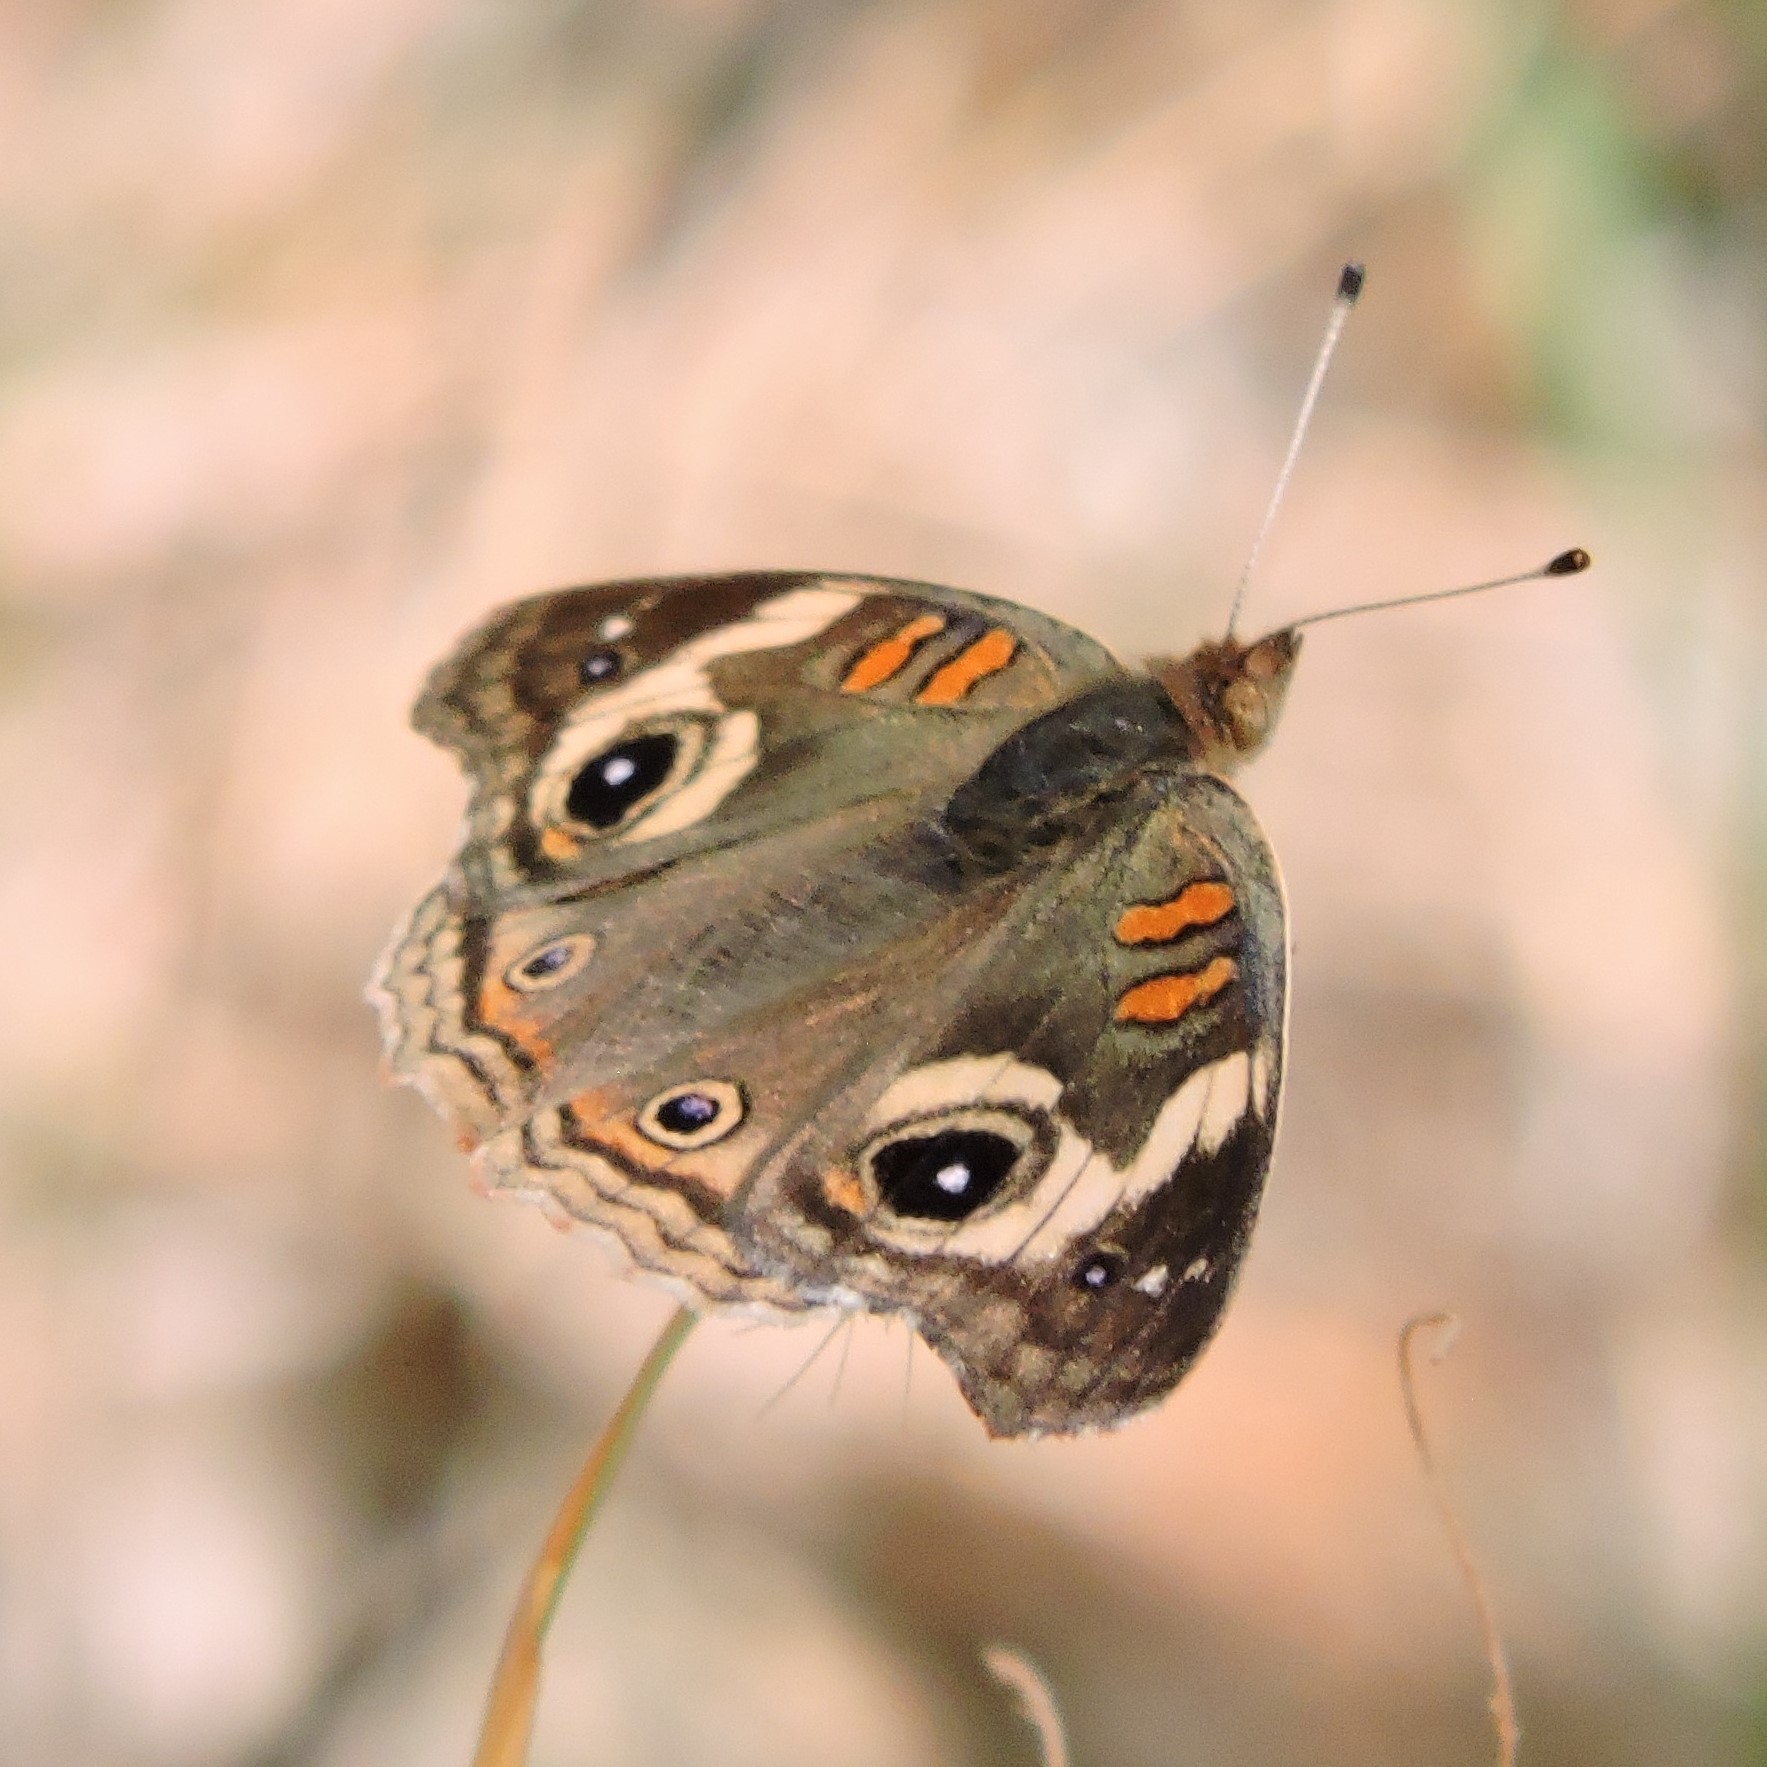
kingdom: Animalia
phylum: Arthropoda
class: Insecta
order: Lepidoptera
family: Nymphalidae
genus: Junonia
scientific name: Junonia grisea
